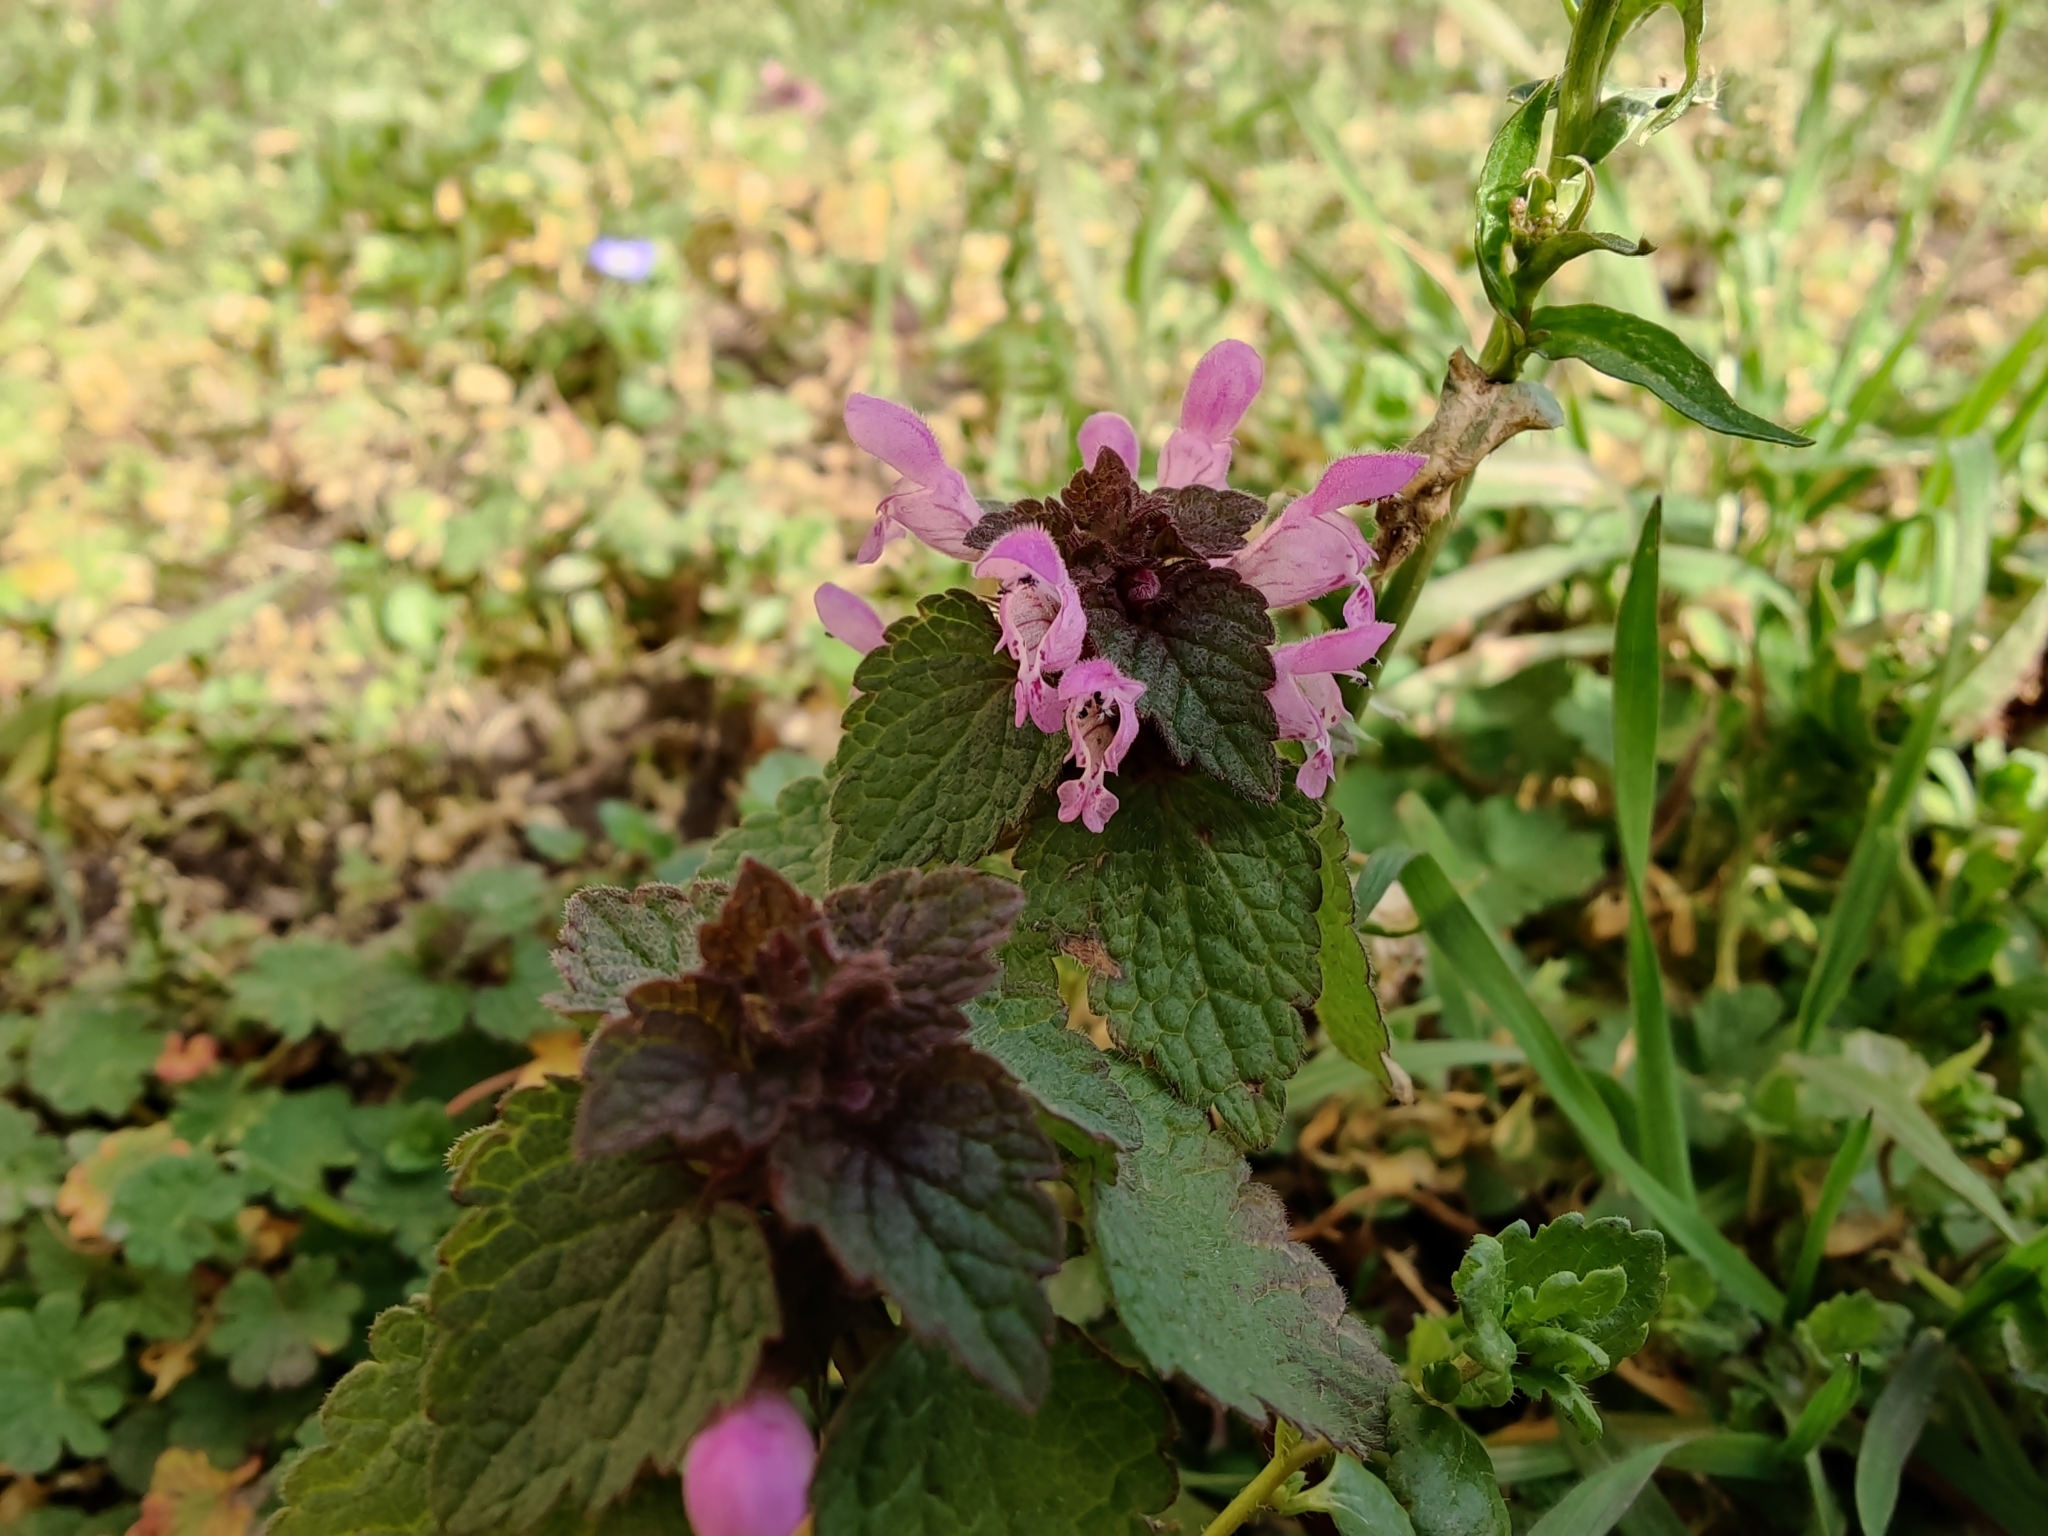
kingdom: Plantae
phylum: Tracheophyta
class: Magnoliopsida
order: Lamiales
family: Lamiaceae
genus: Lamium
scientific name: Lamium purpureum
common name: Red dead-nettle
